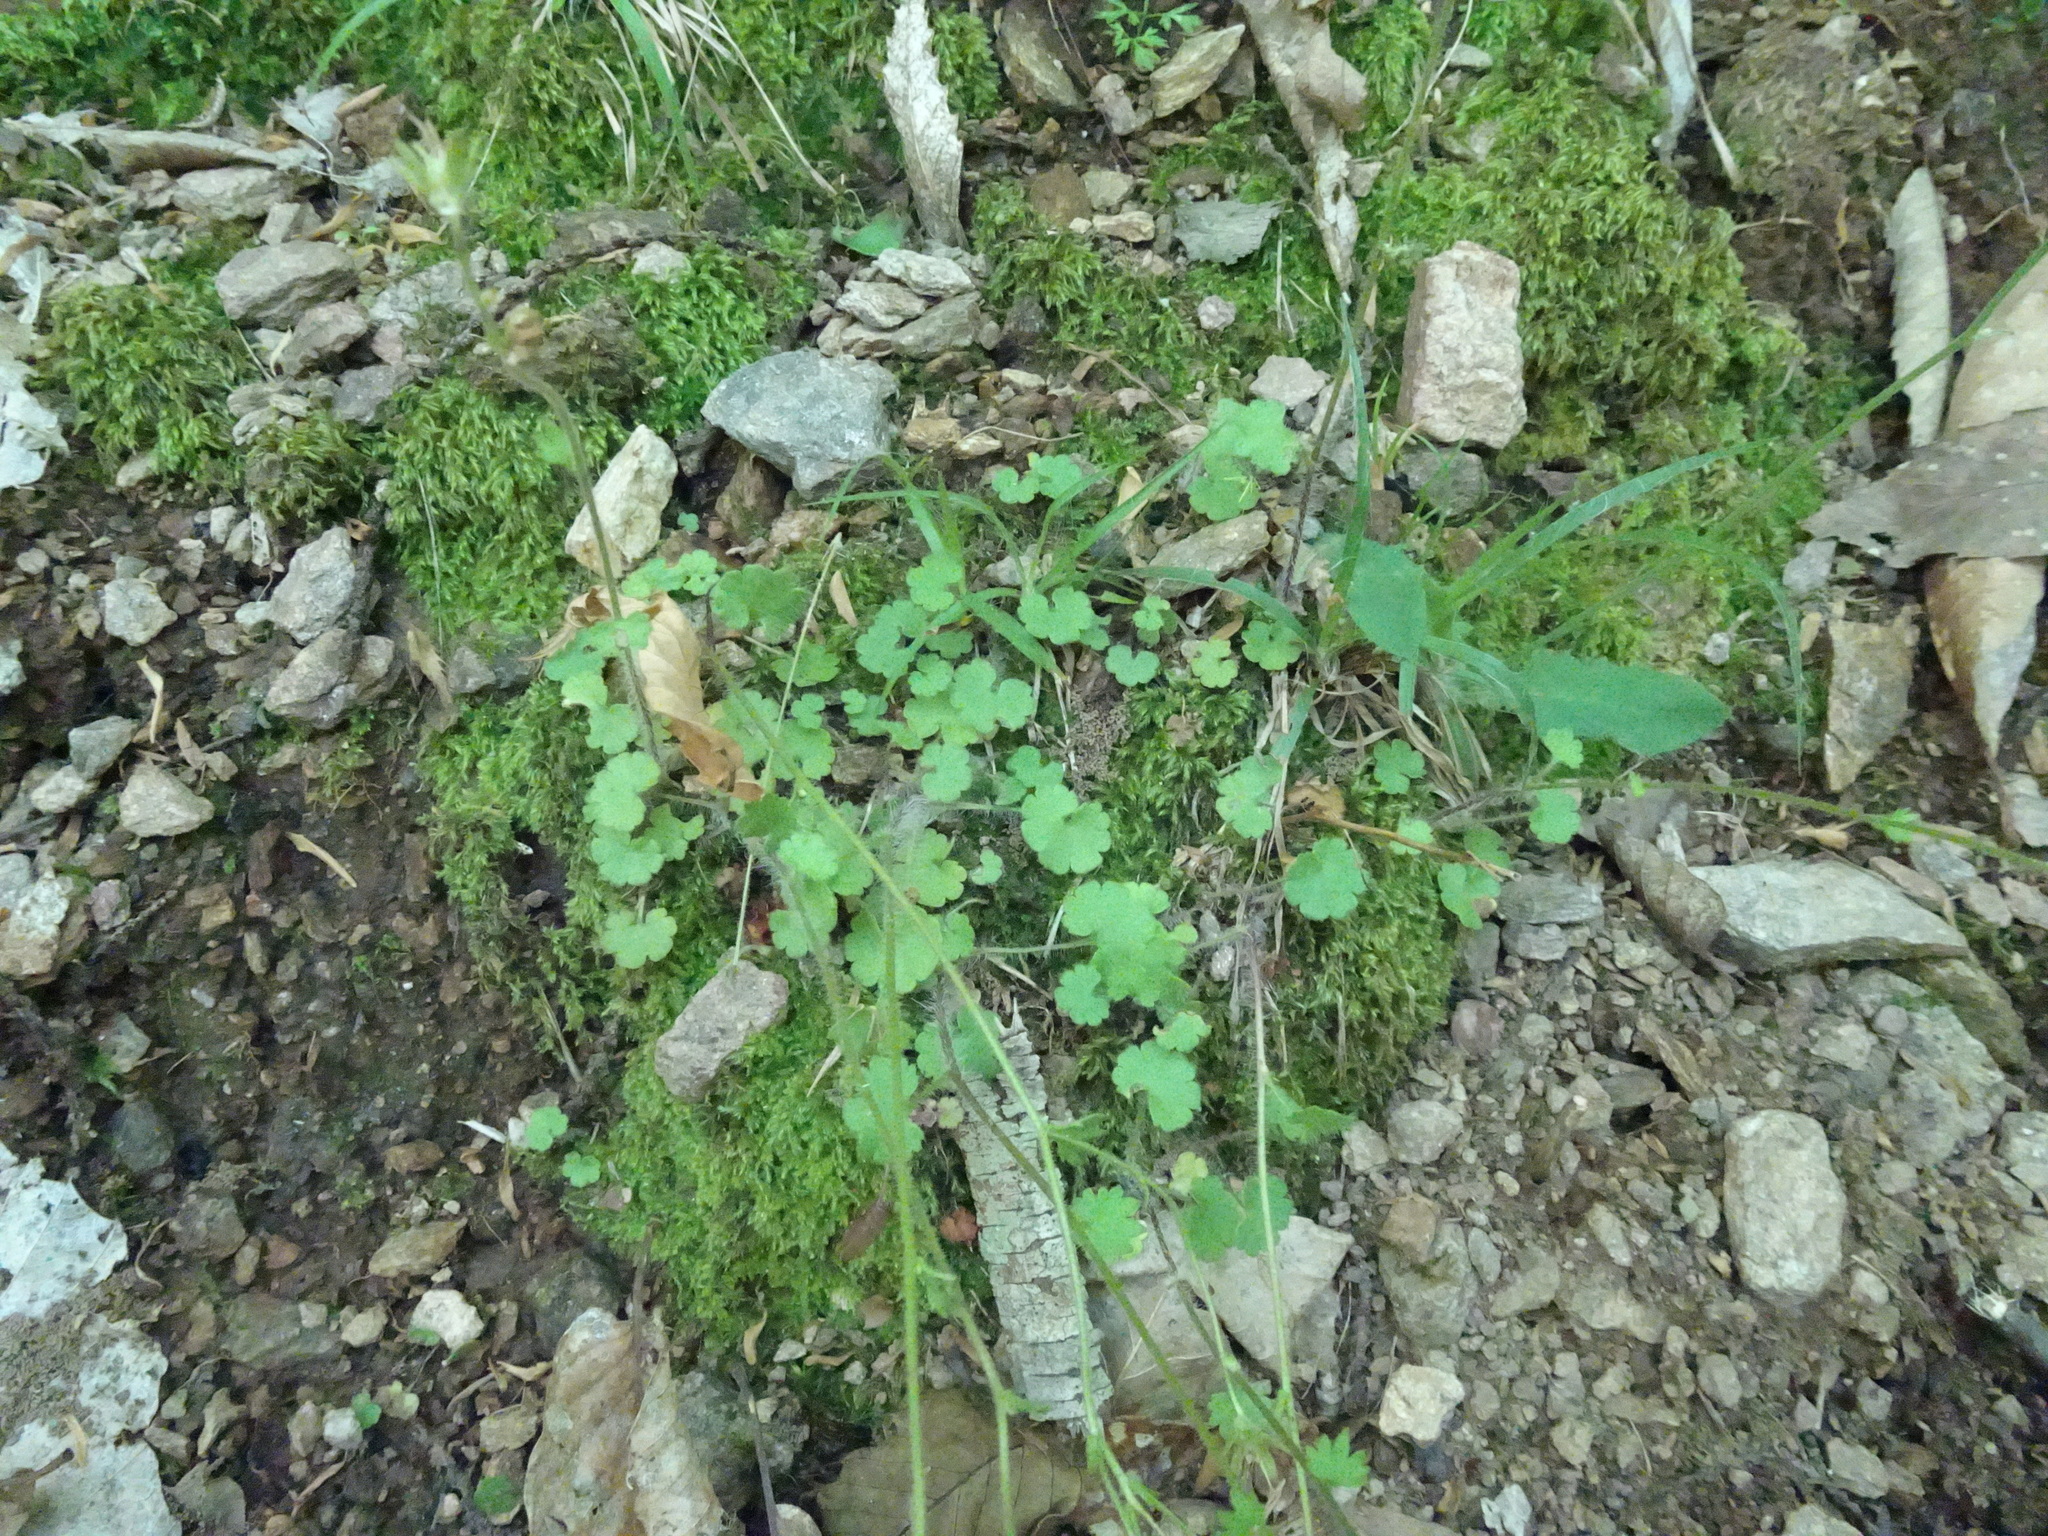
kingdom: Plantae
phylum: Tracheophyta
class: Magnoliopsida
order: Saxifragales
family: Saxifragaceae
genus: Saxifraga
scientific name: Saxifraga granulata
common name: Meadow saxifrage
